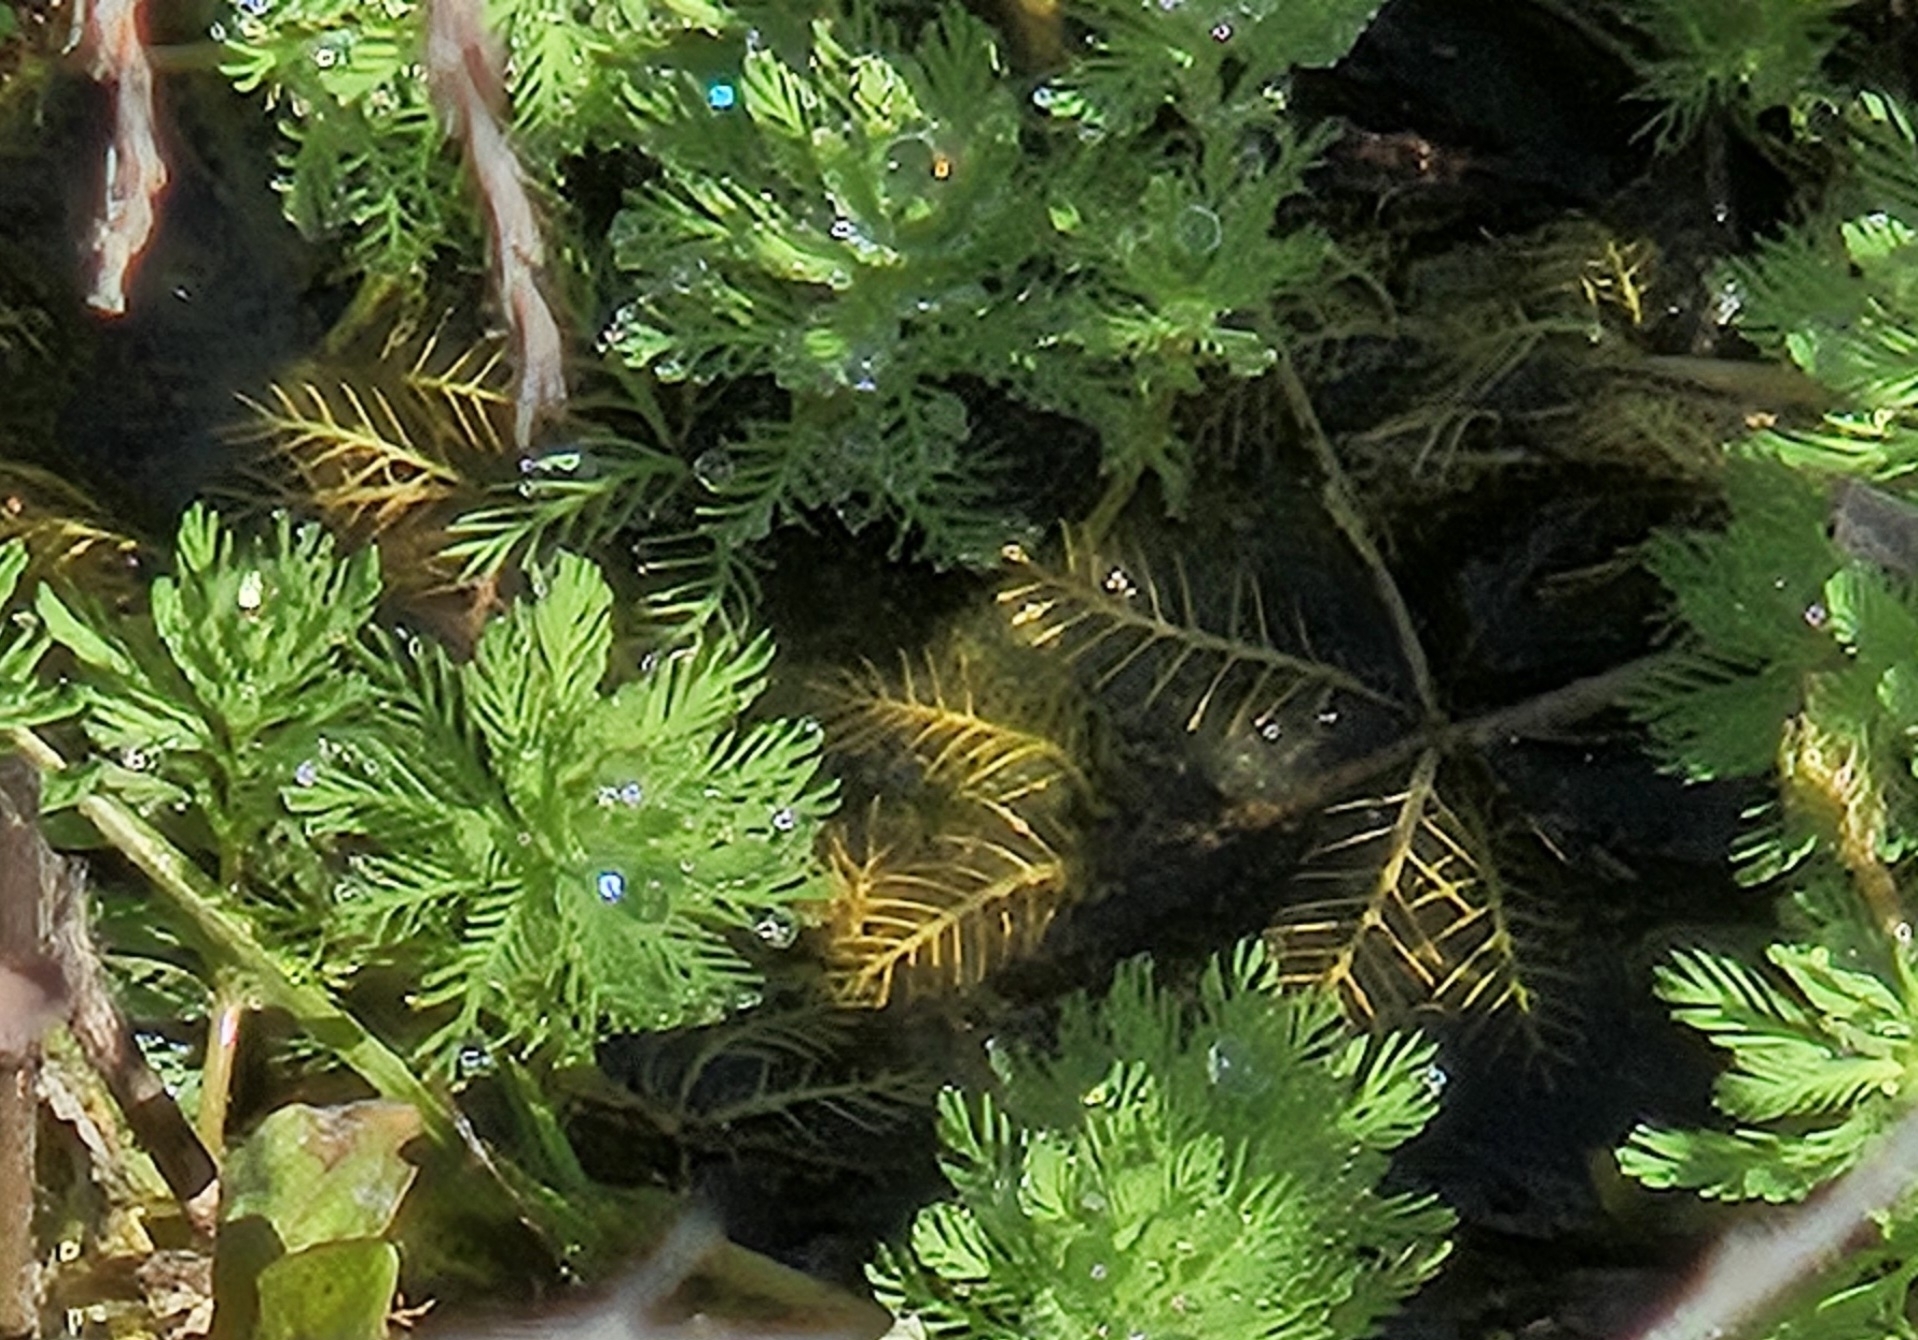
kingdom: Plantae
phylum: Tracheophyta
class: Magnoliopsida
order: Saxifragales
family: Haloragaceae
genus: Myriophyllum
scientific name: Myriophyllum aquaticum
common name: Parrot's feather
